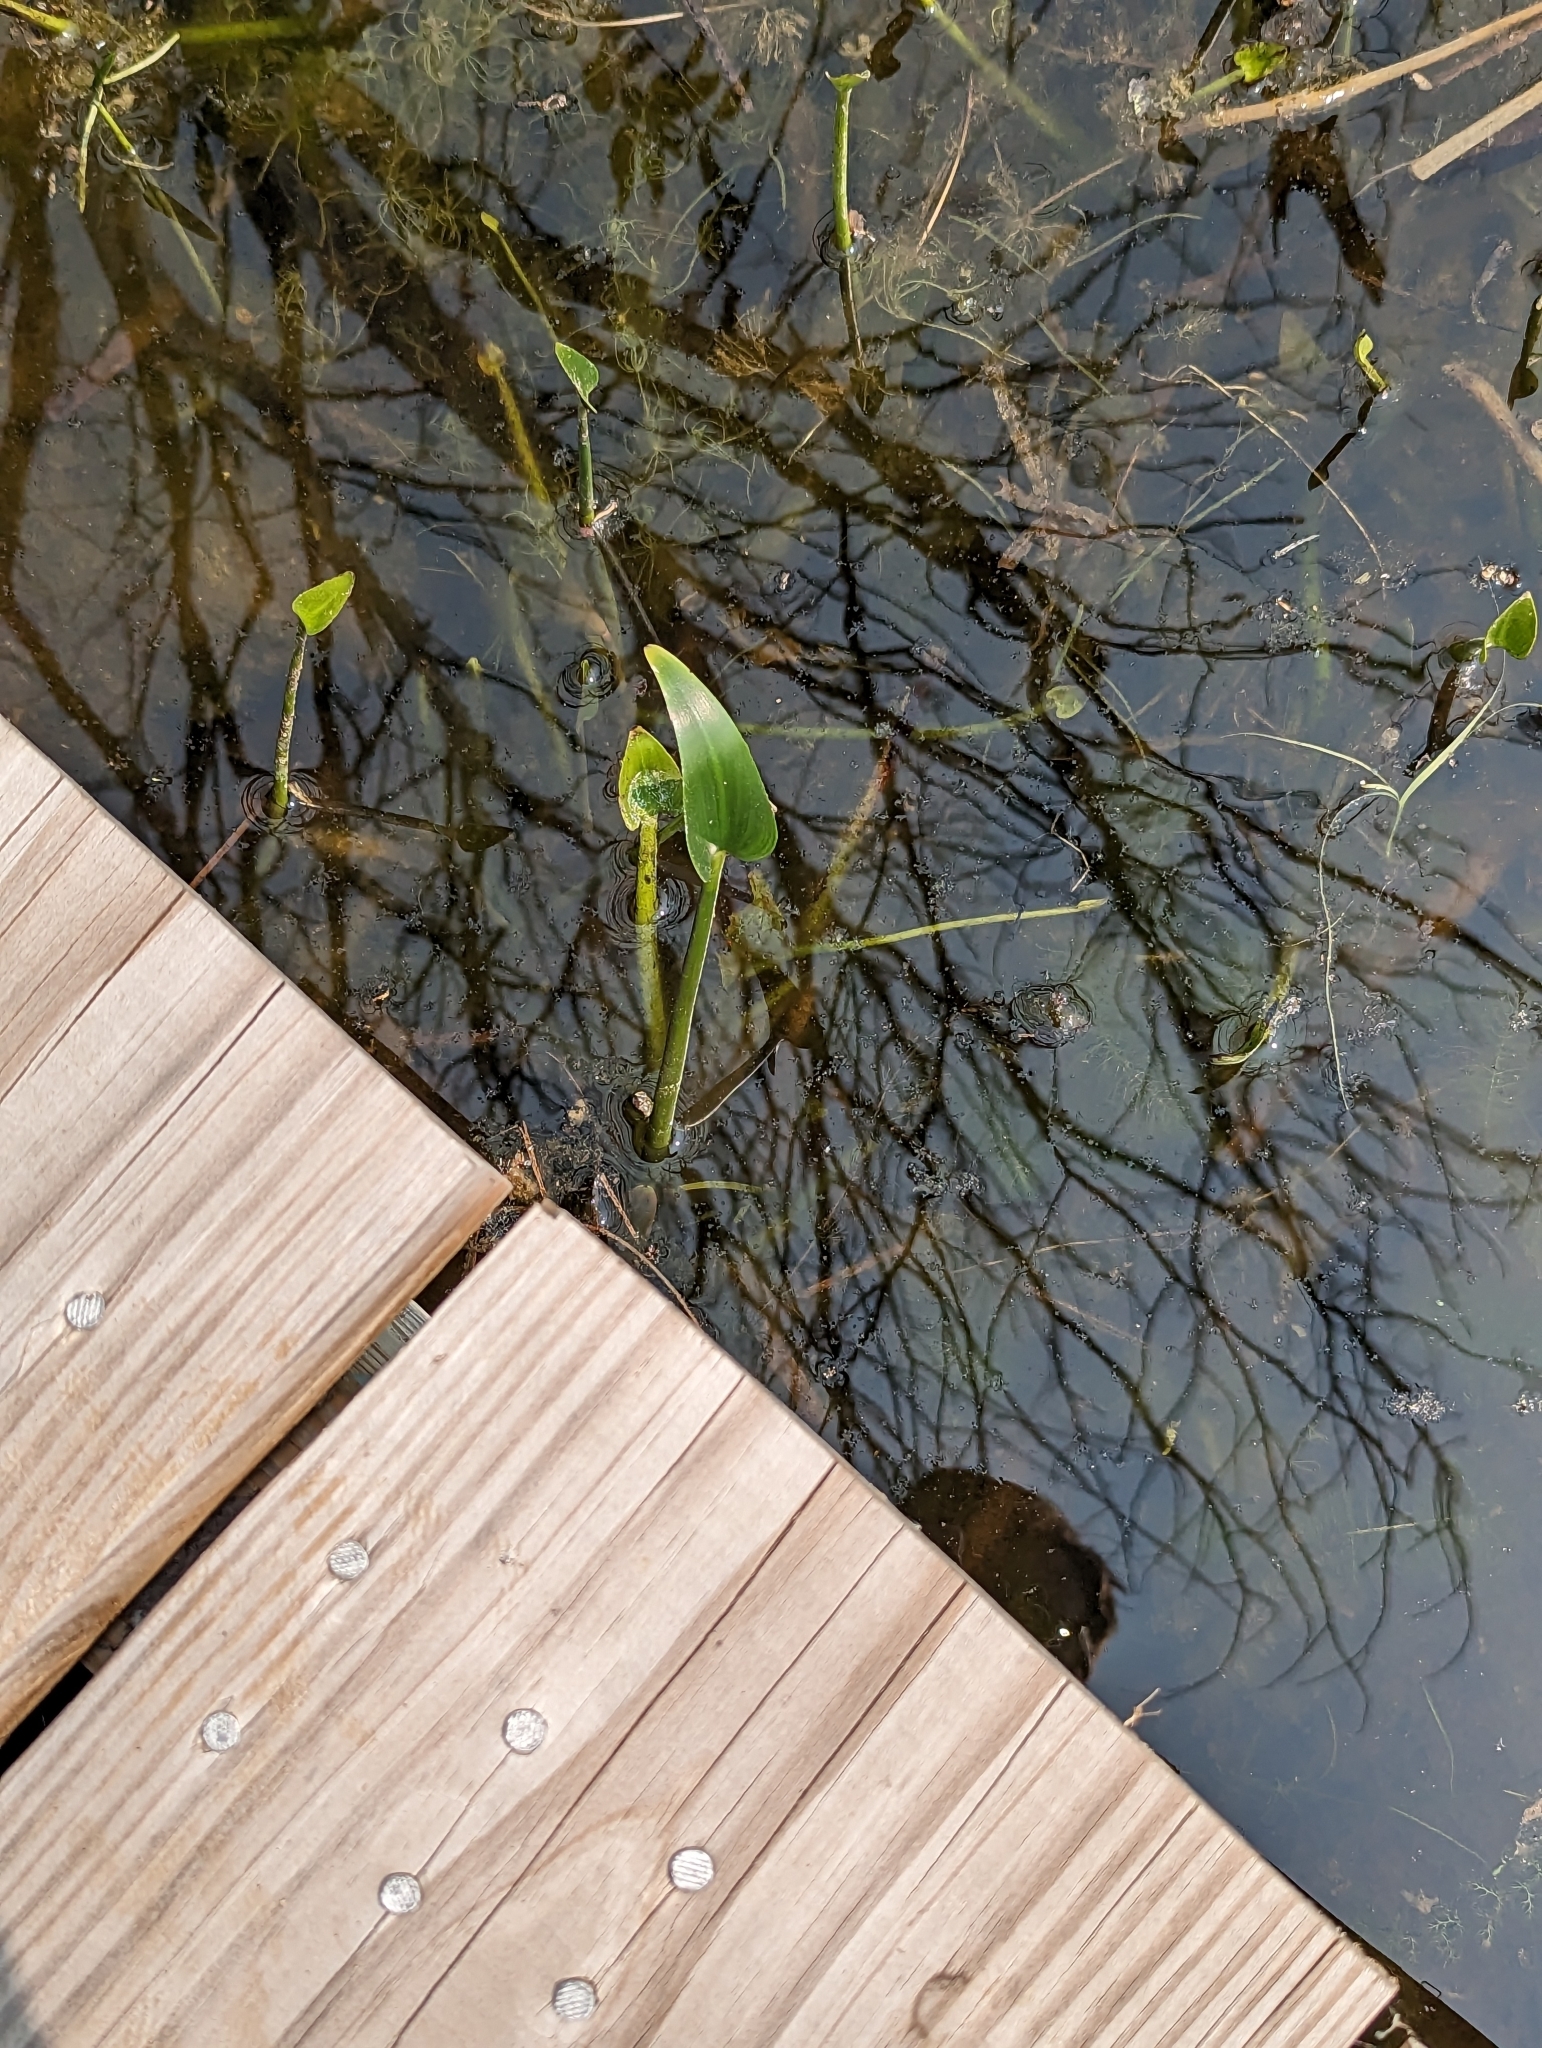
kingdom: Plantae
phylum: Tracheophyta
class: Liliopsida
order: Commelinales
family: Pontederiaceae
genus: Pontederia
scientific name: Pontederia cordata
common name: Pickerelweed
